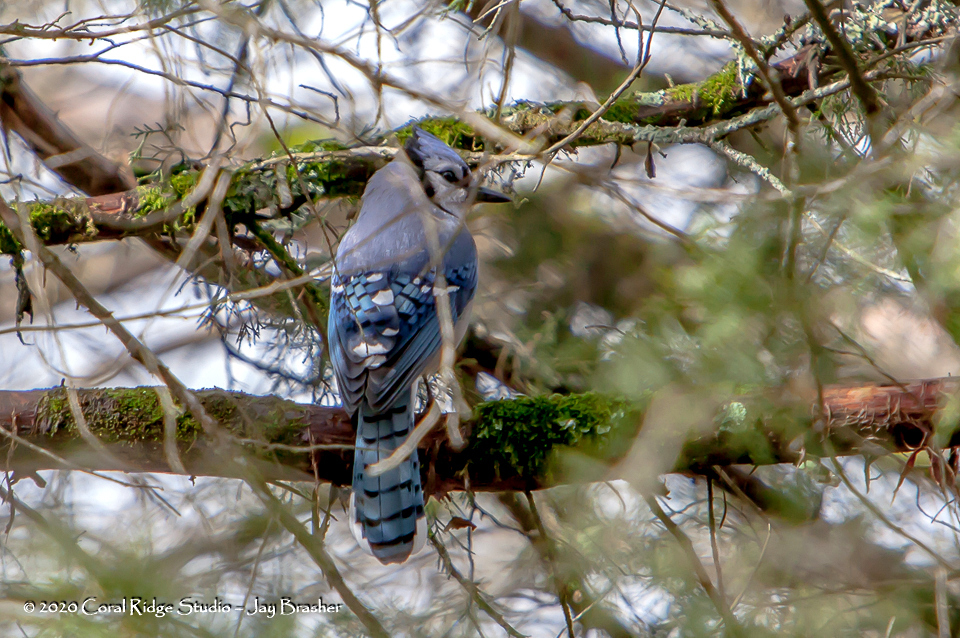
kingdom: Animalia
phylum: Chordata
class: Aves
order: Passeriformes
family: Corvidae
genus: Cyanocitta
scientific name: Cyanocitta cristata
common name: Blue jay
